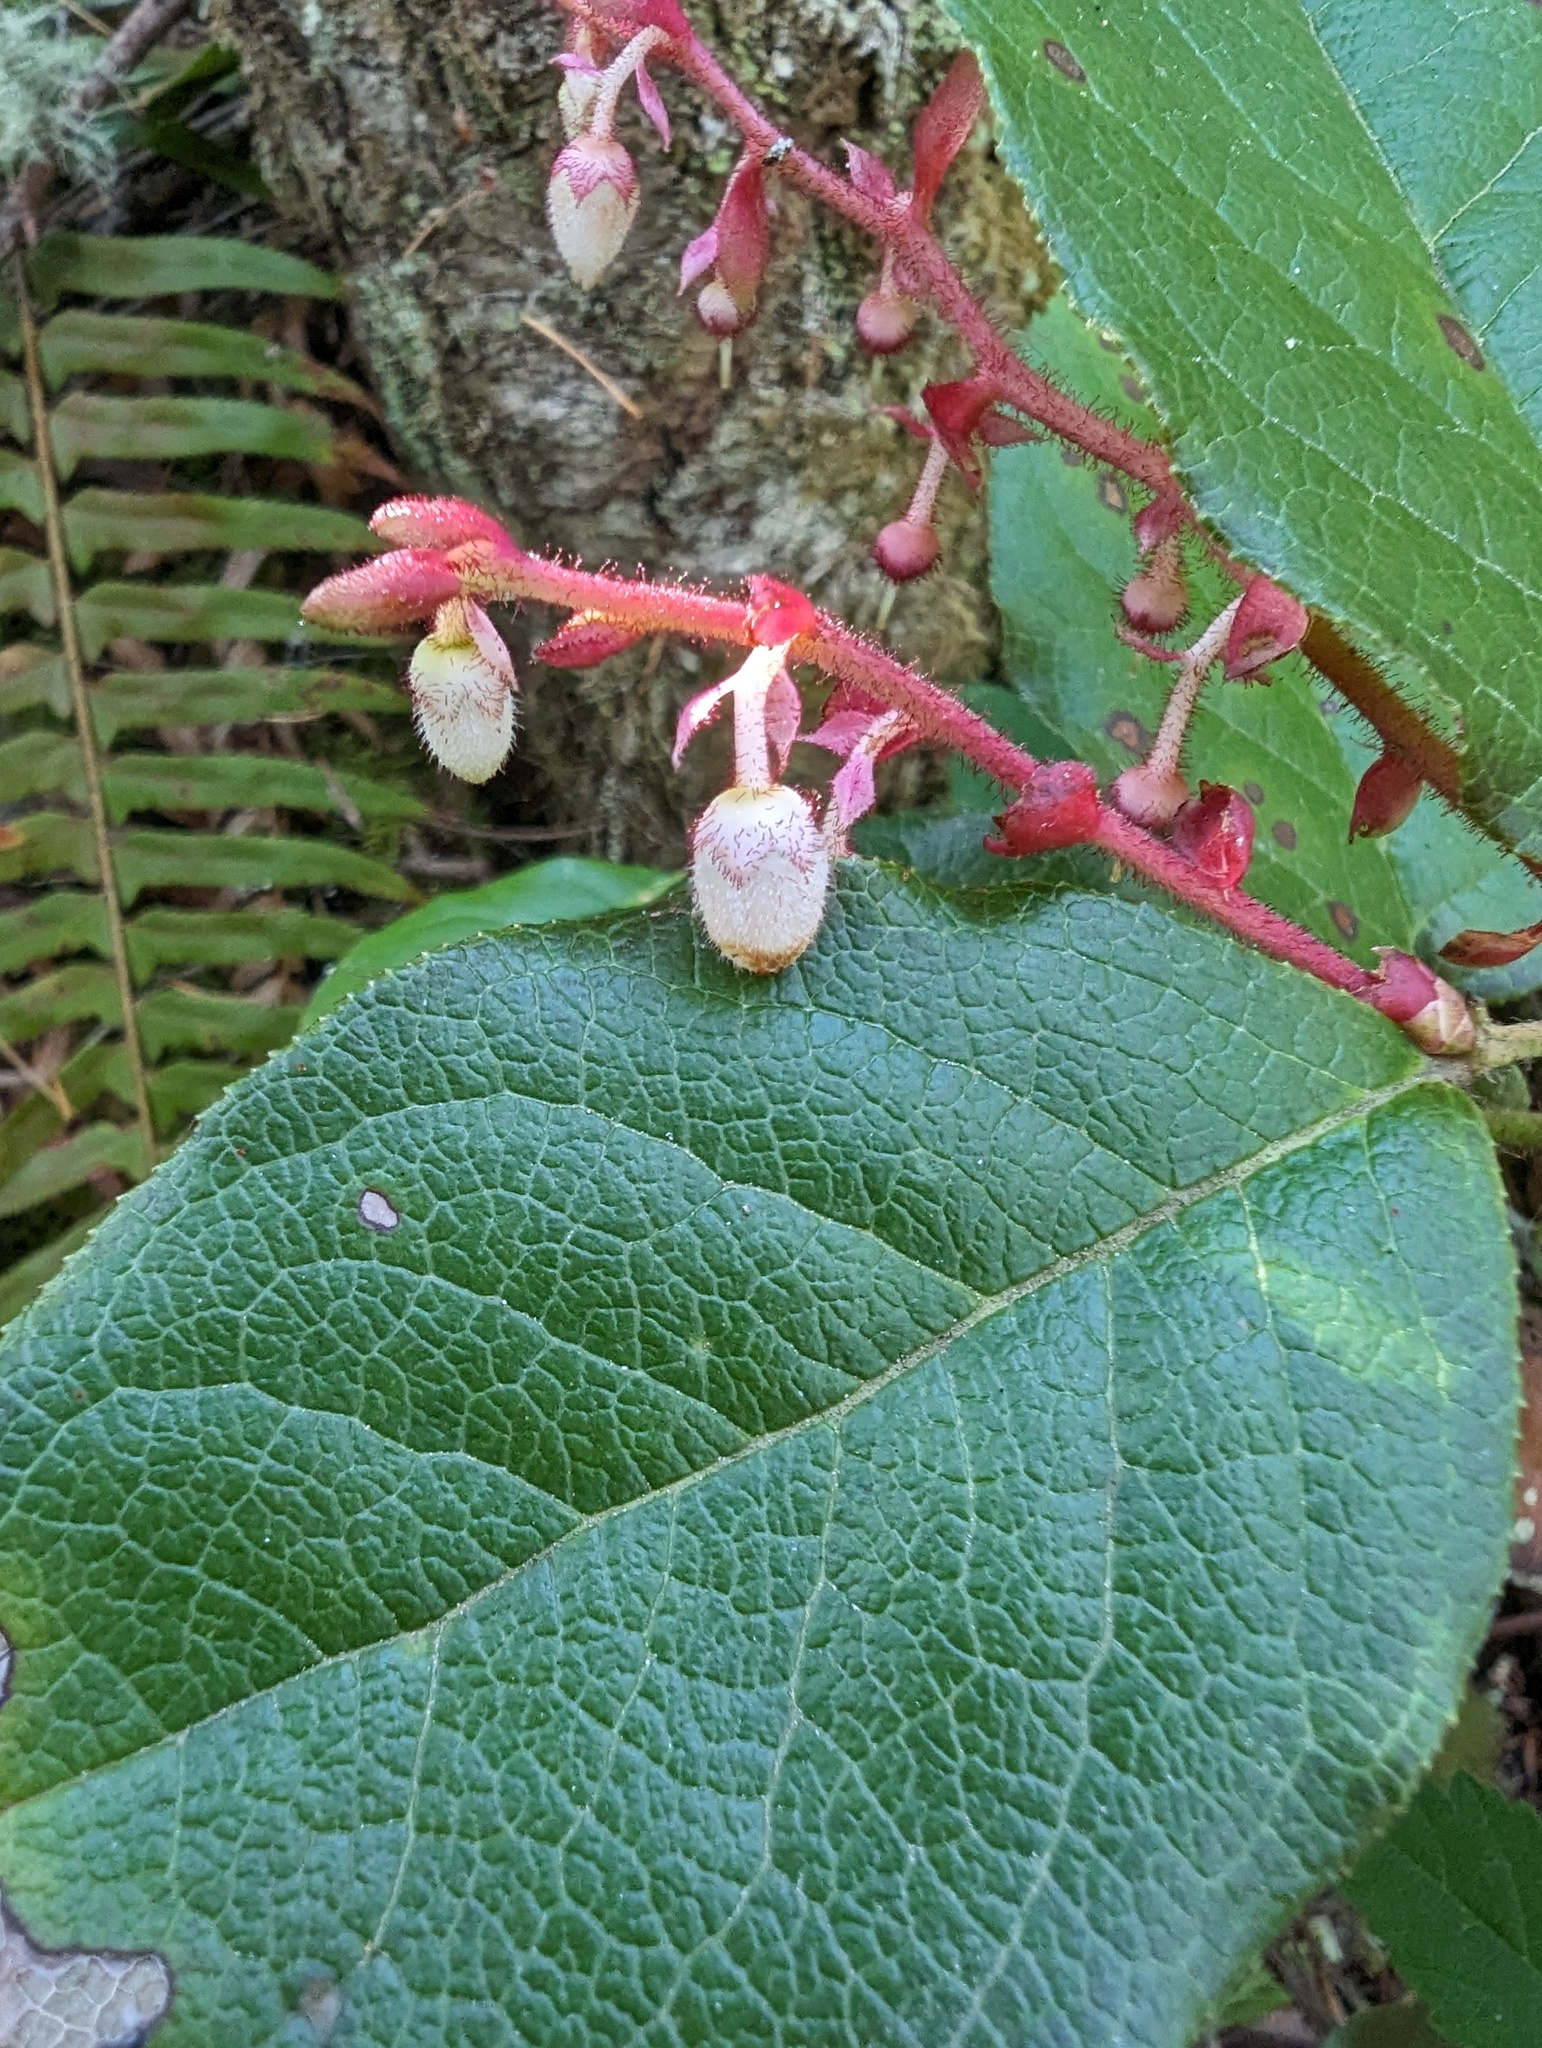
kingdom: Plantae
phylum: Tracheophyta
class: Magnoliopsida
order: Ericales
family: Ericaceae
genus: Gaultheria
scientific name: Gaultheria shallon
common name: Shallon
